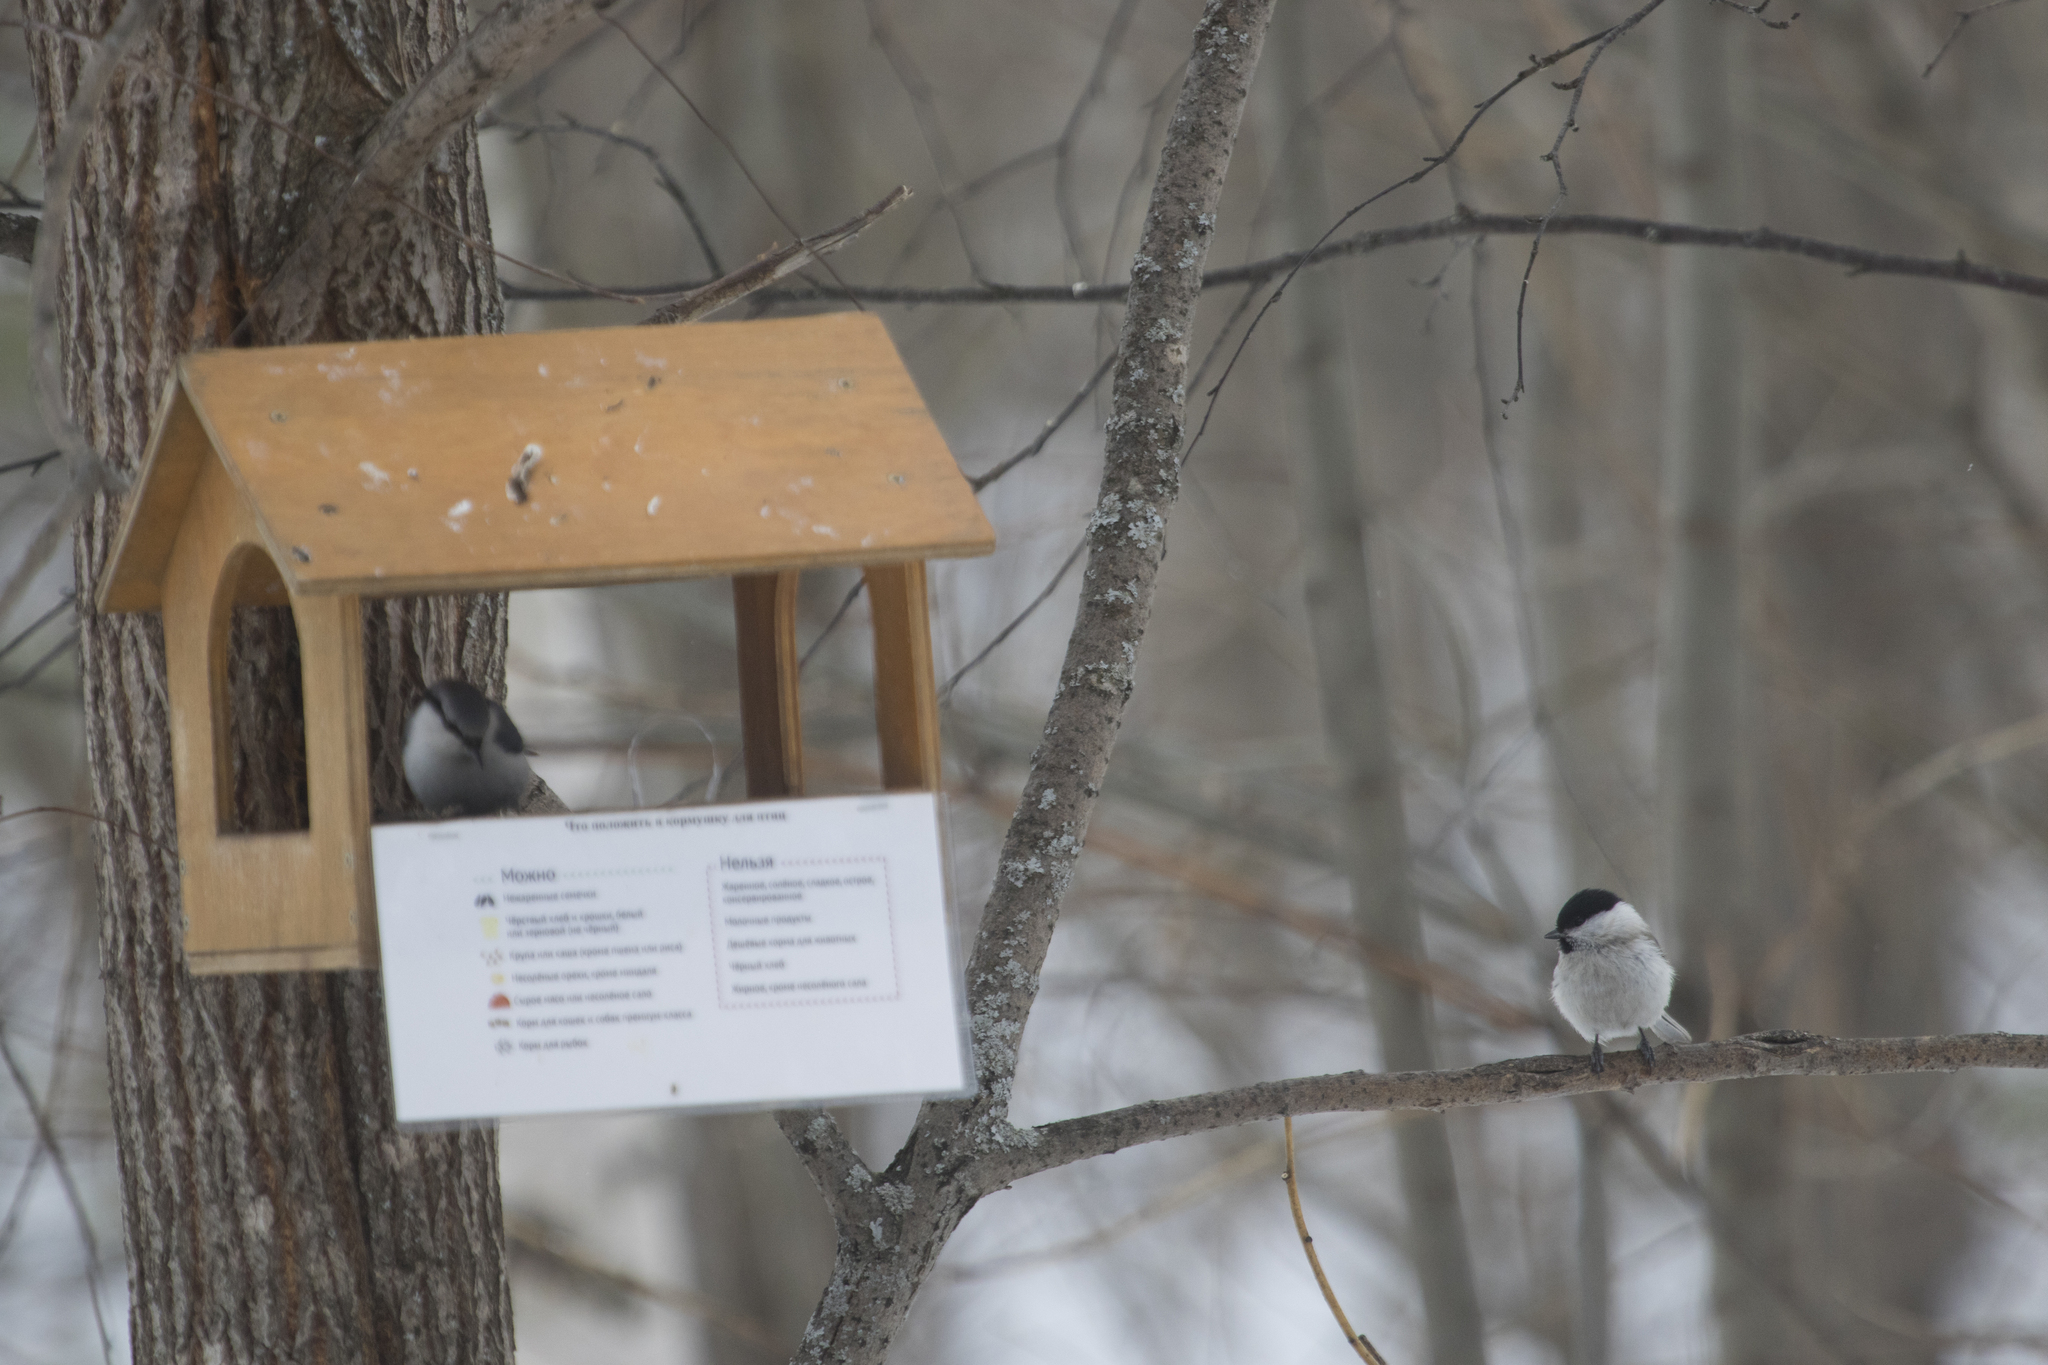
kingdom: Animalia
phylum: Chordata
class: Aves
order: Passeriformes
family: Paridae
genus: Poecile
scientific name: Poecile montanus
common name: Willow tit
